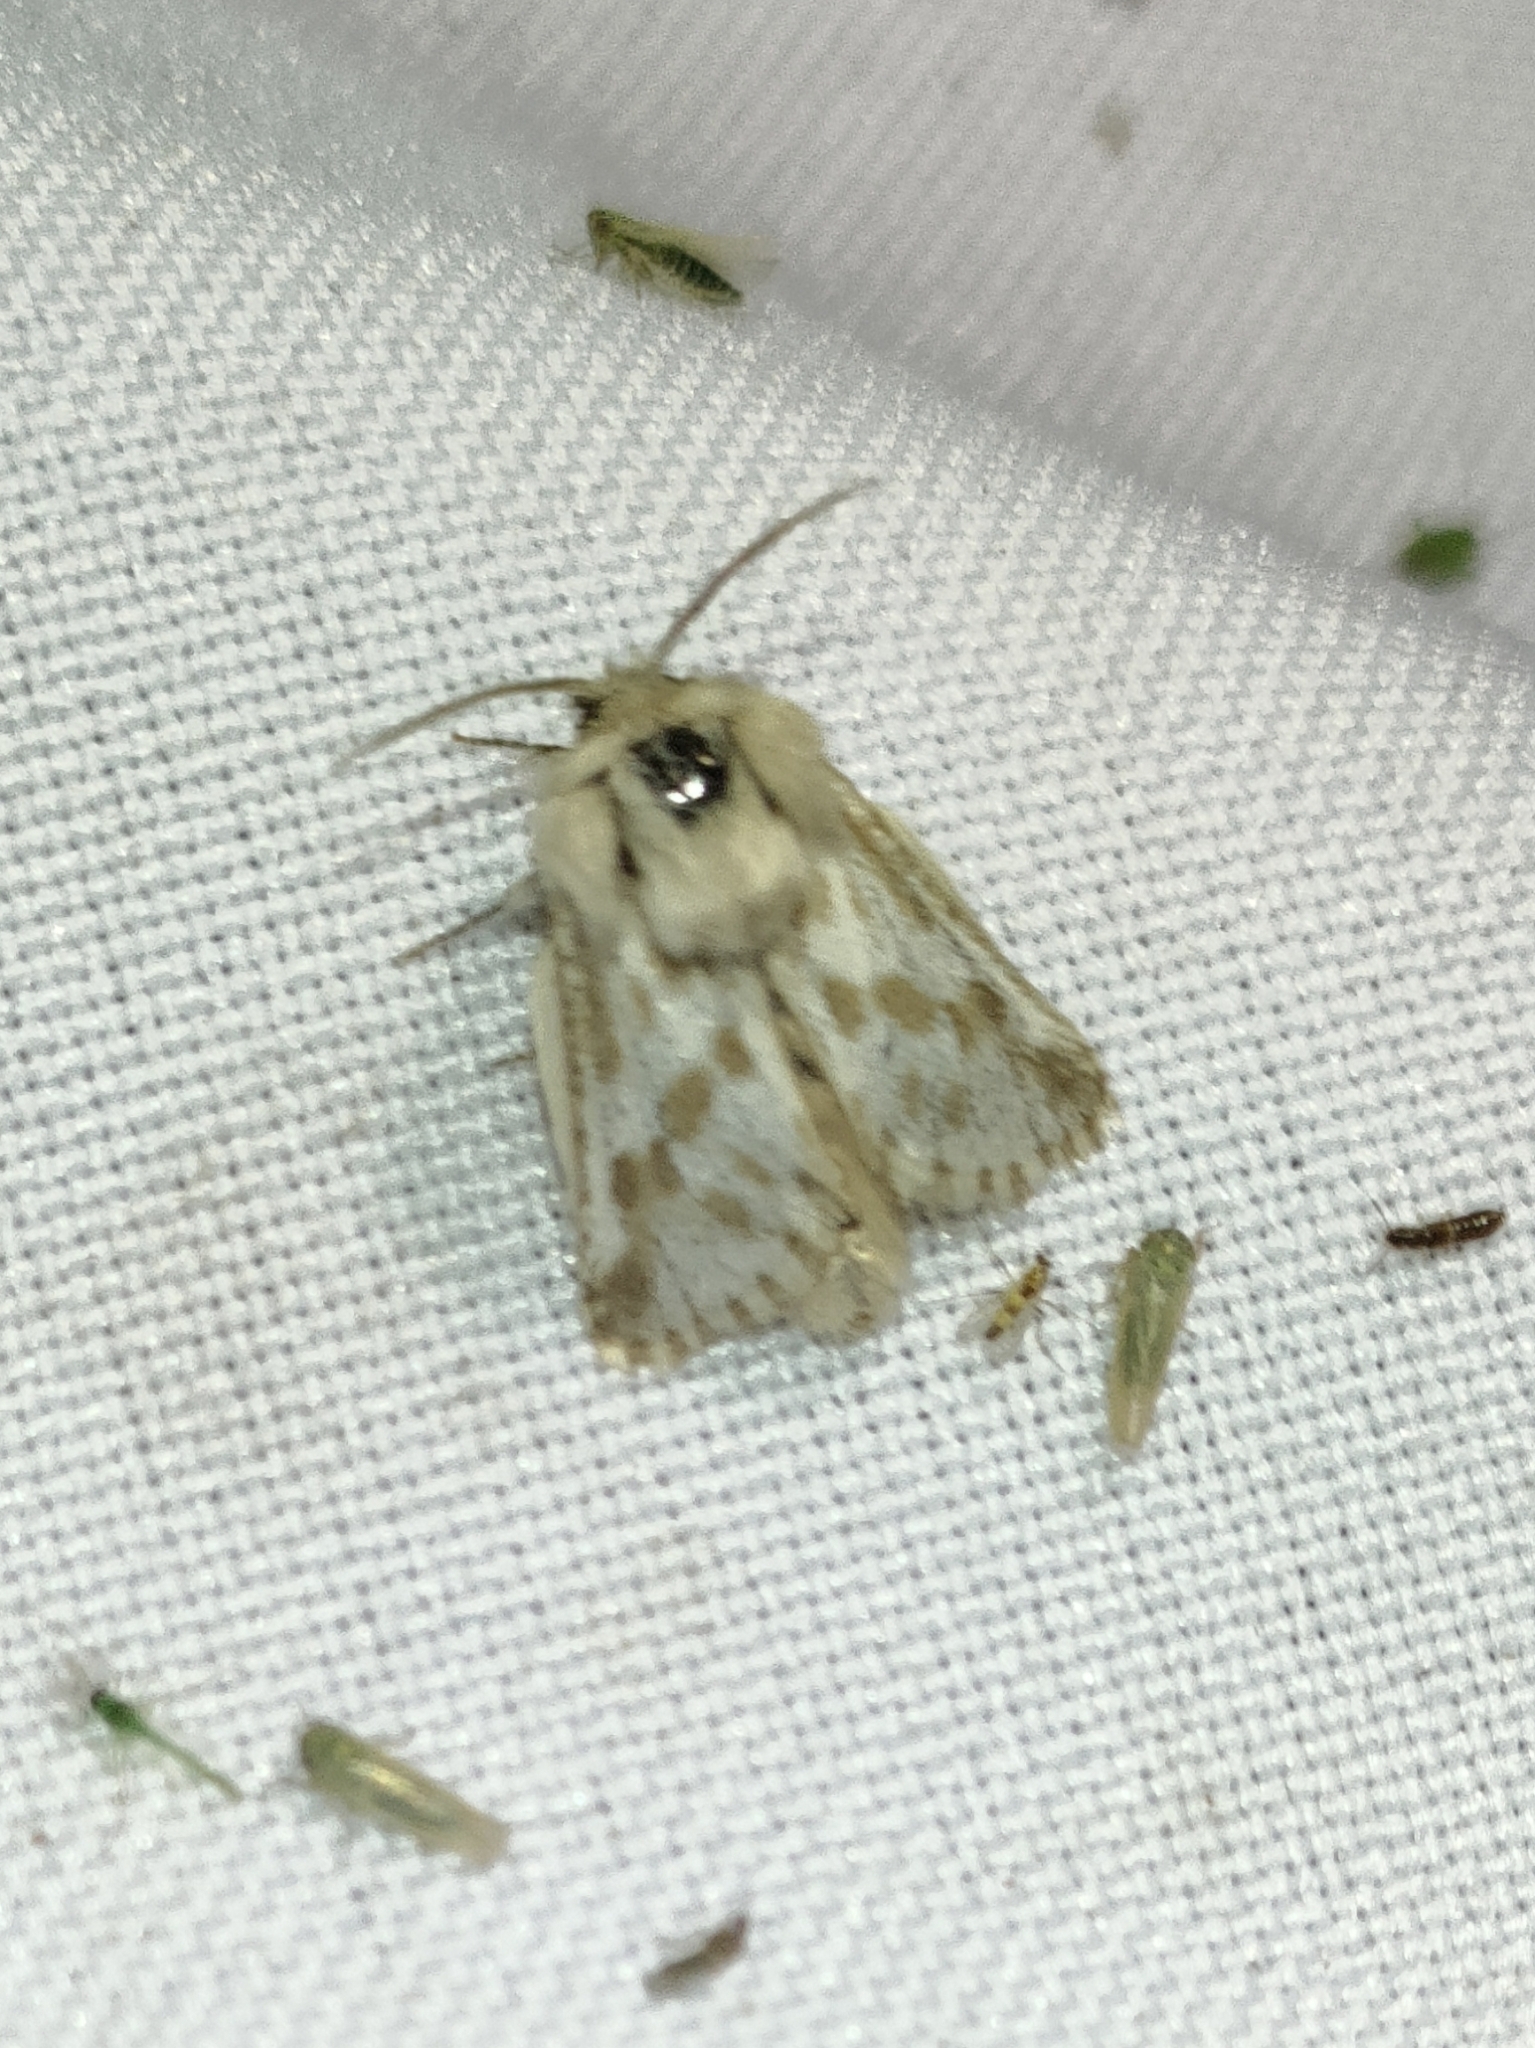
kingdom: Animalia
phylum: Arthropoda
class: Insecta
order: Lepidoptera
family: Cossidae
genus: Dyspessa
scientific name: Dyspessa ulula
